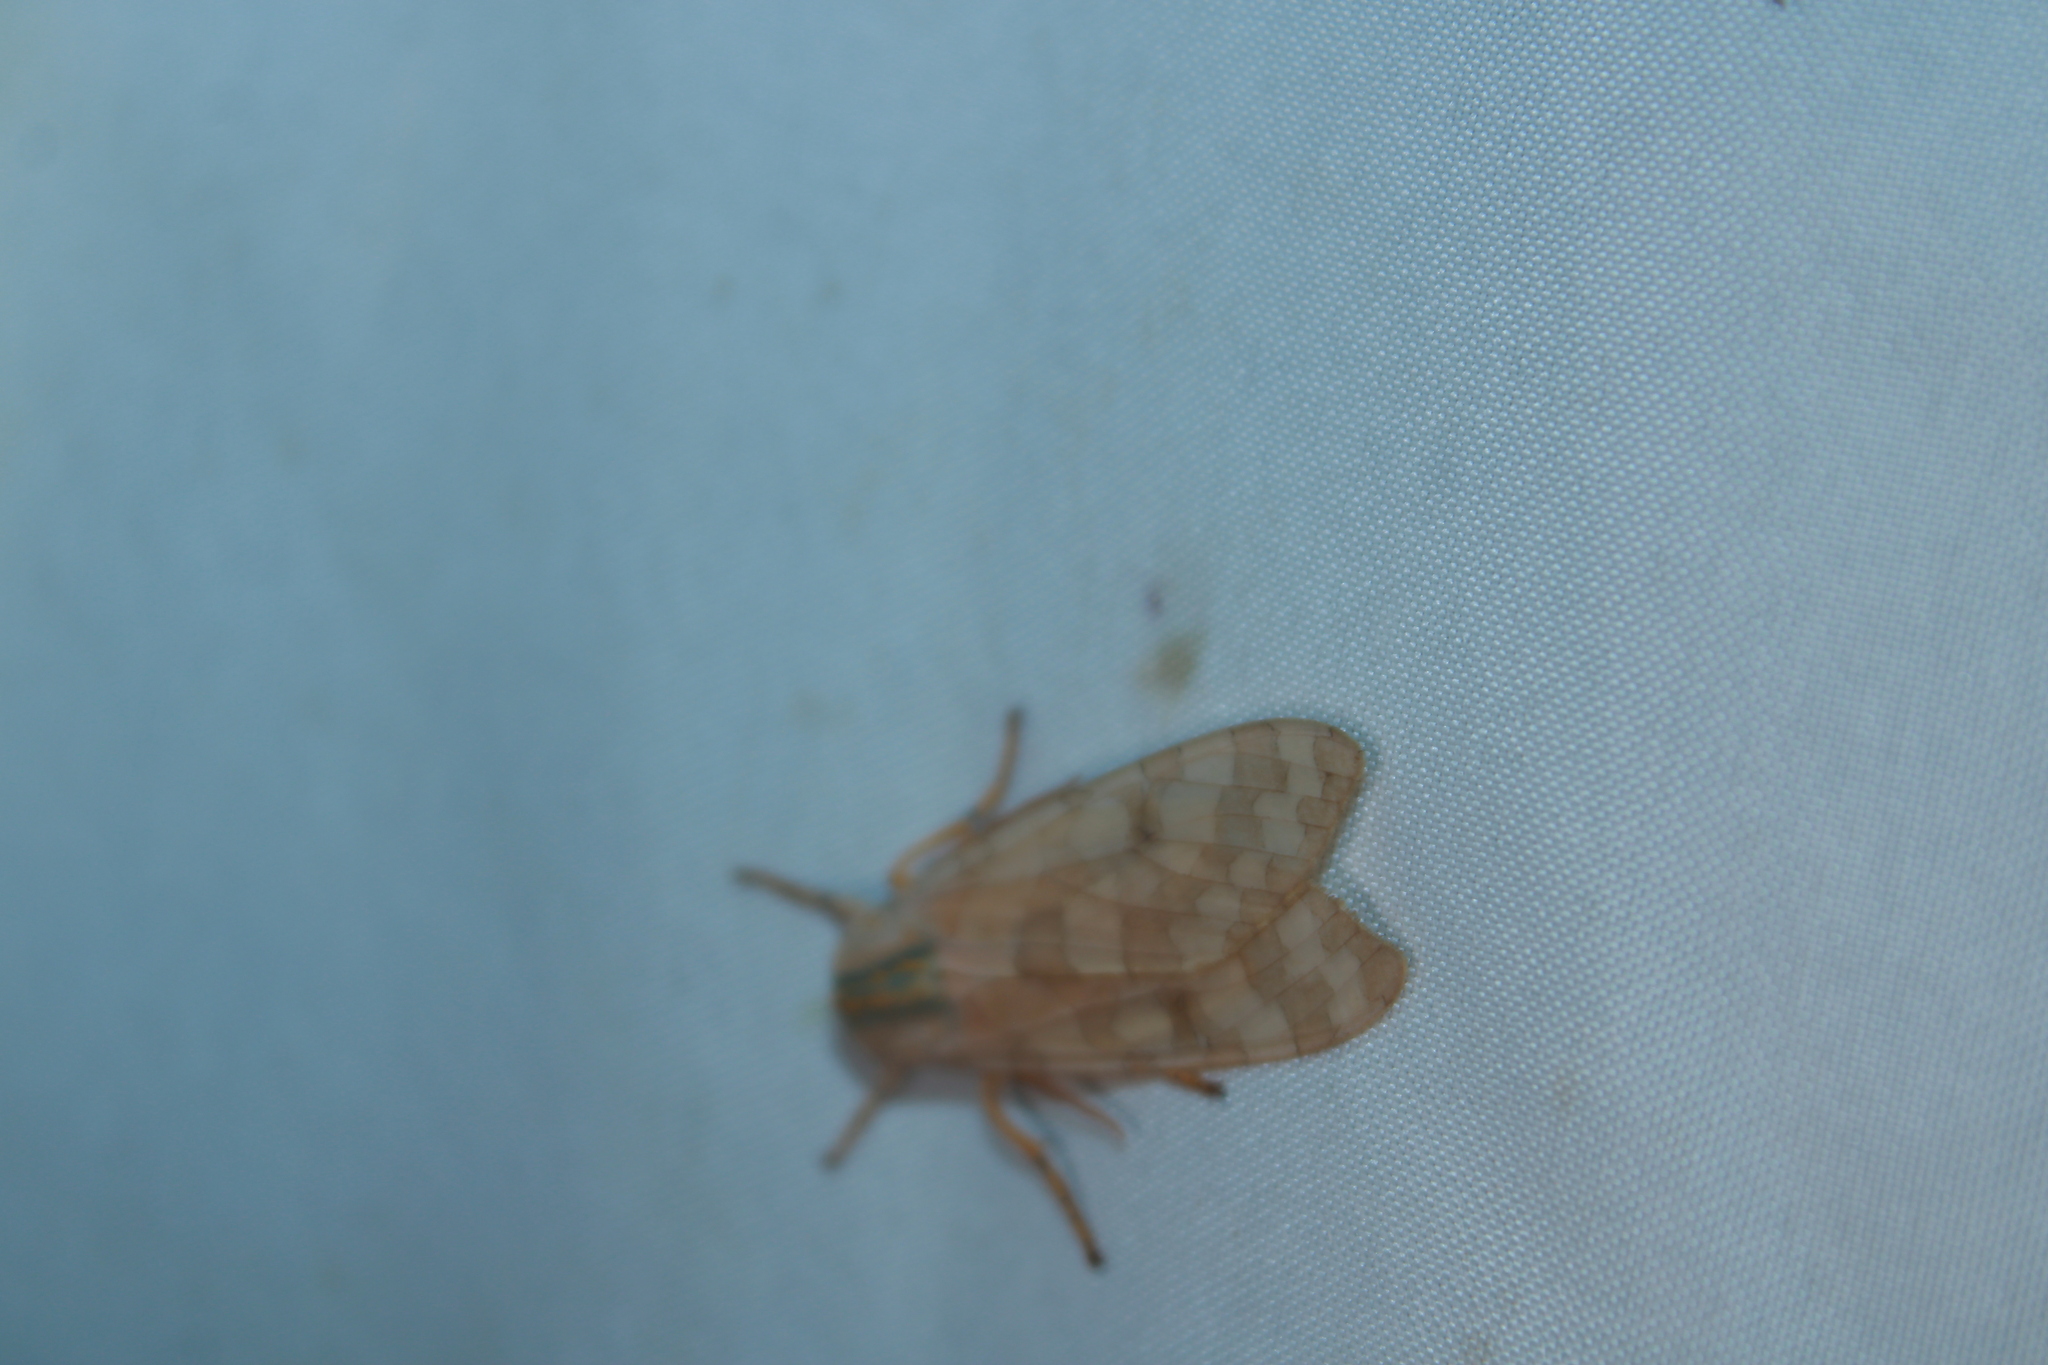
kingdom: Animalia
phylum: Arthropoda
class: Insecta
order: Lepidoptera
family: Erebidae
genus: Halysidota
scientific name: Halysidota
